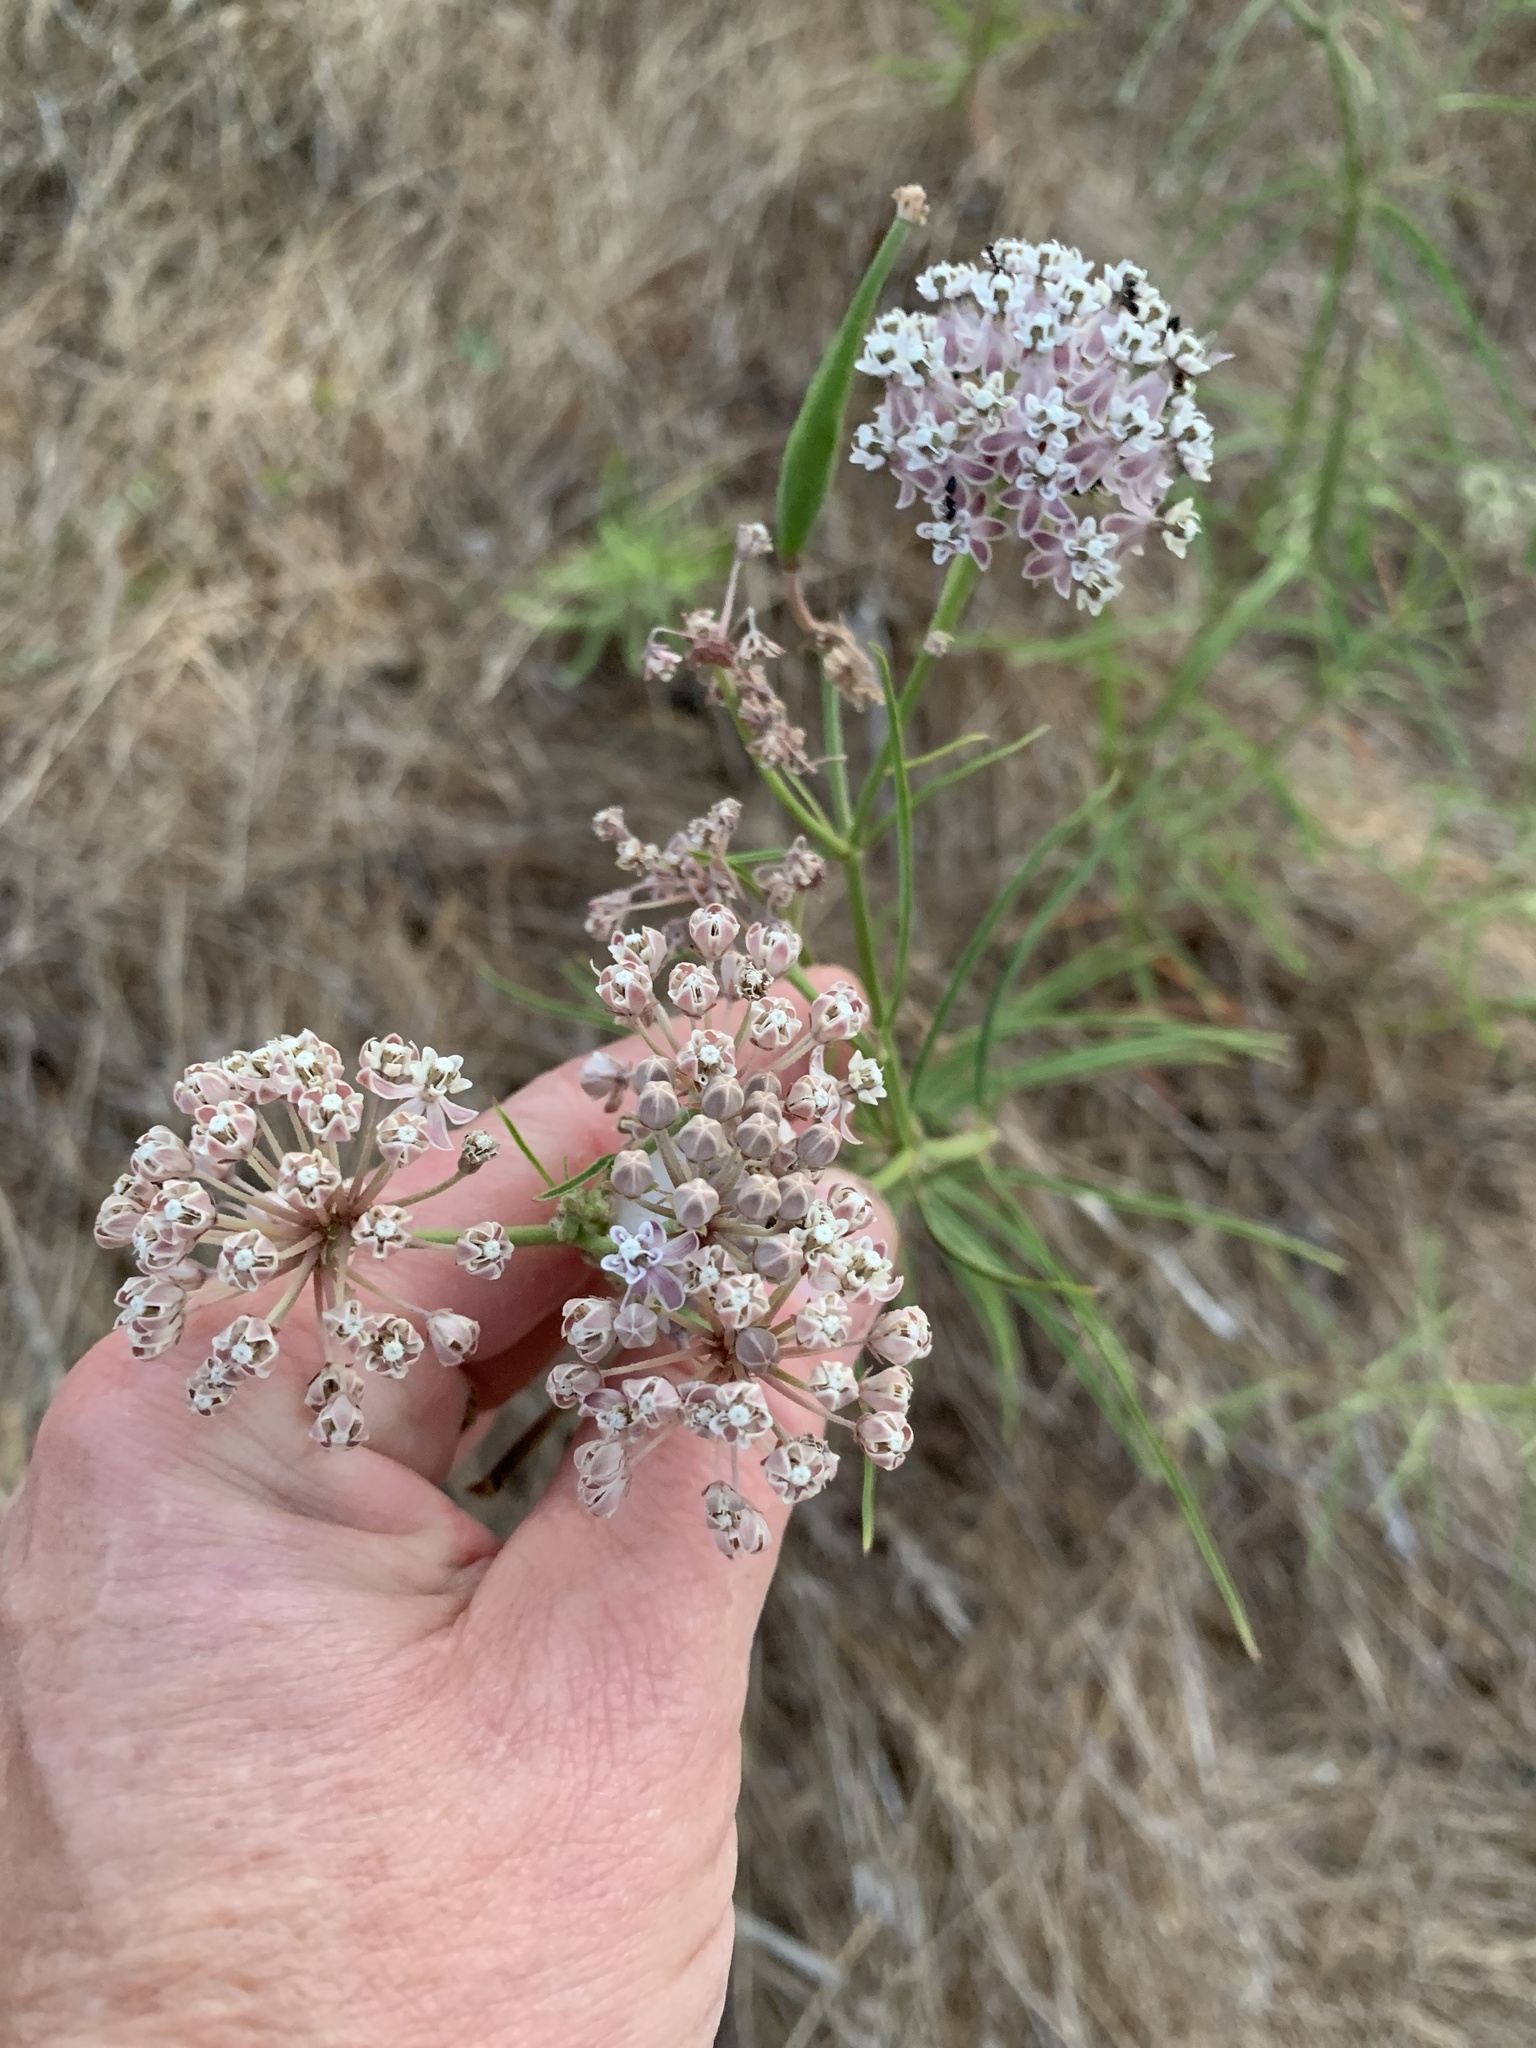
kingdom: Plantae
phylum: Tracheophyta
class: Magnoliopsida
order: Gentianales
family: Apocynaceae
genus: Asclepias
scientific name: Asclepias fascicularis
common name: Mexican milkweed
